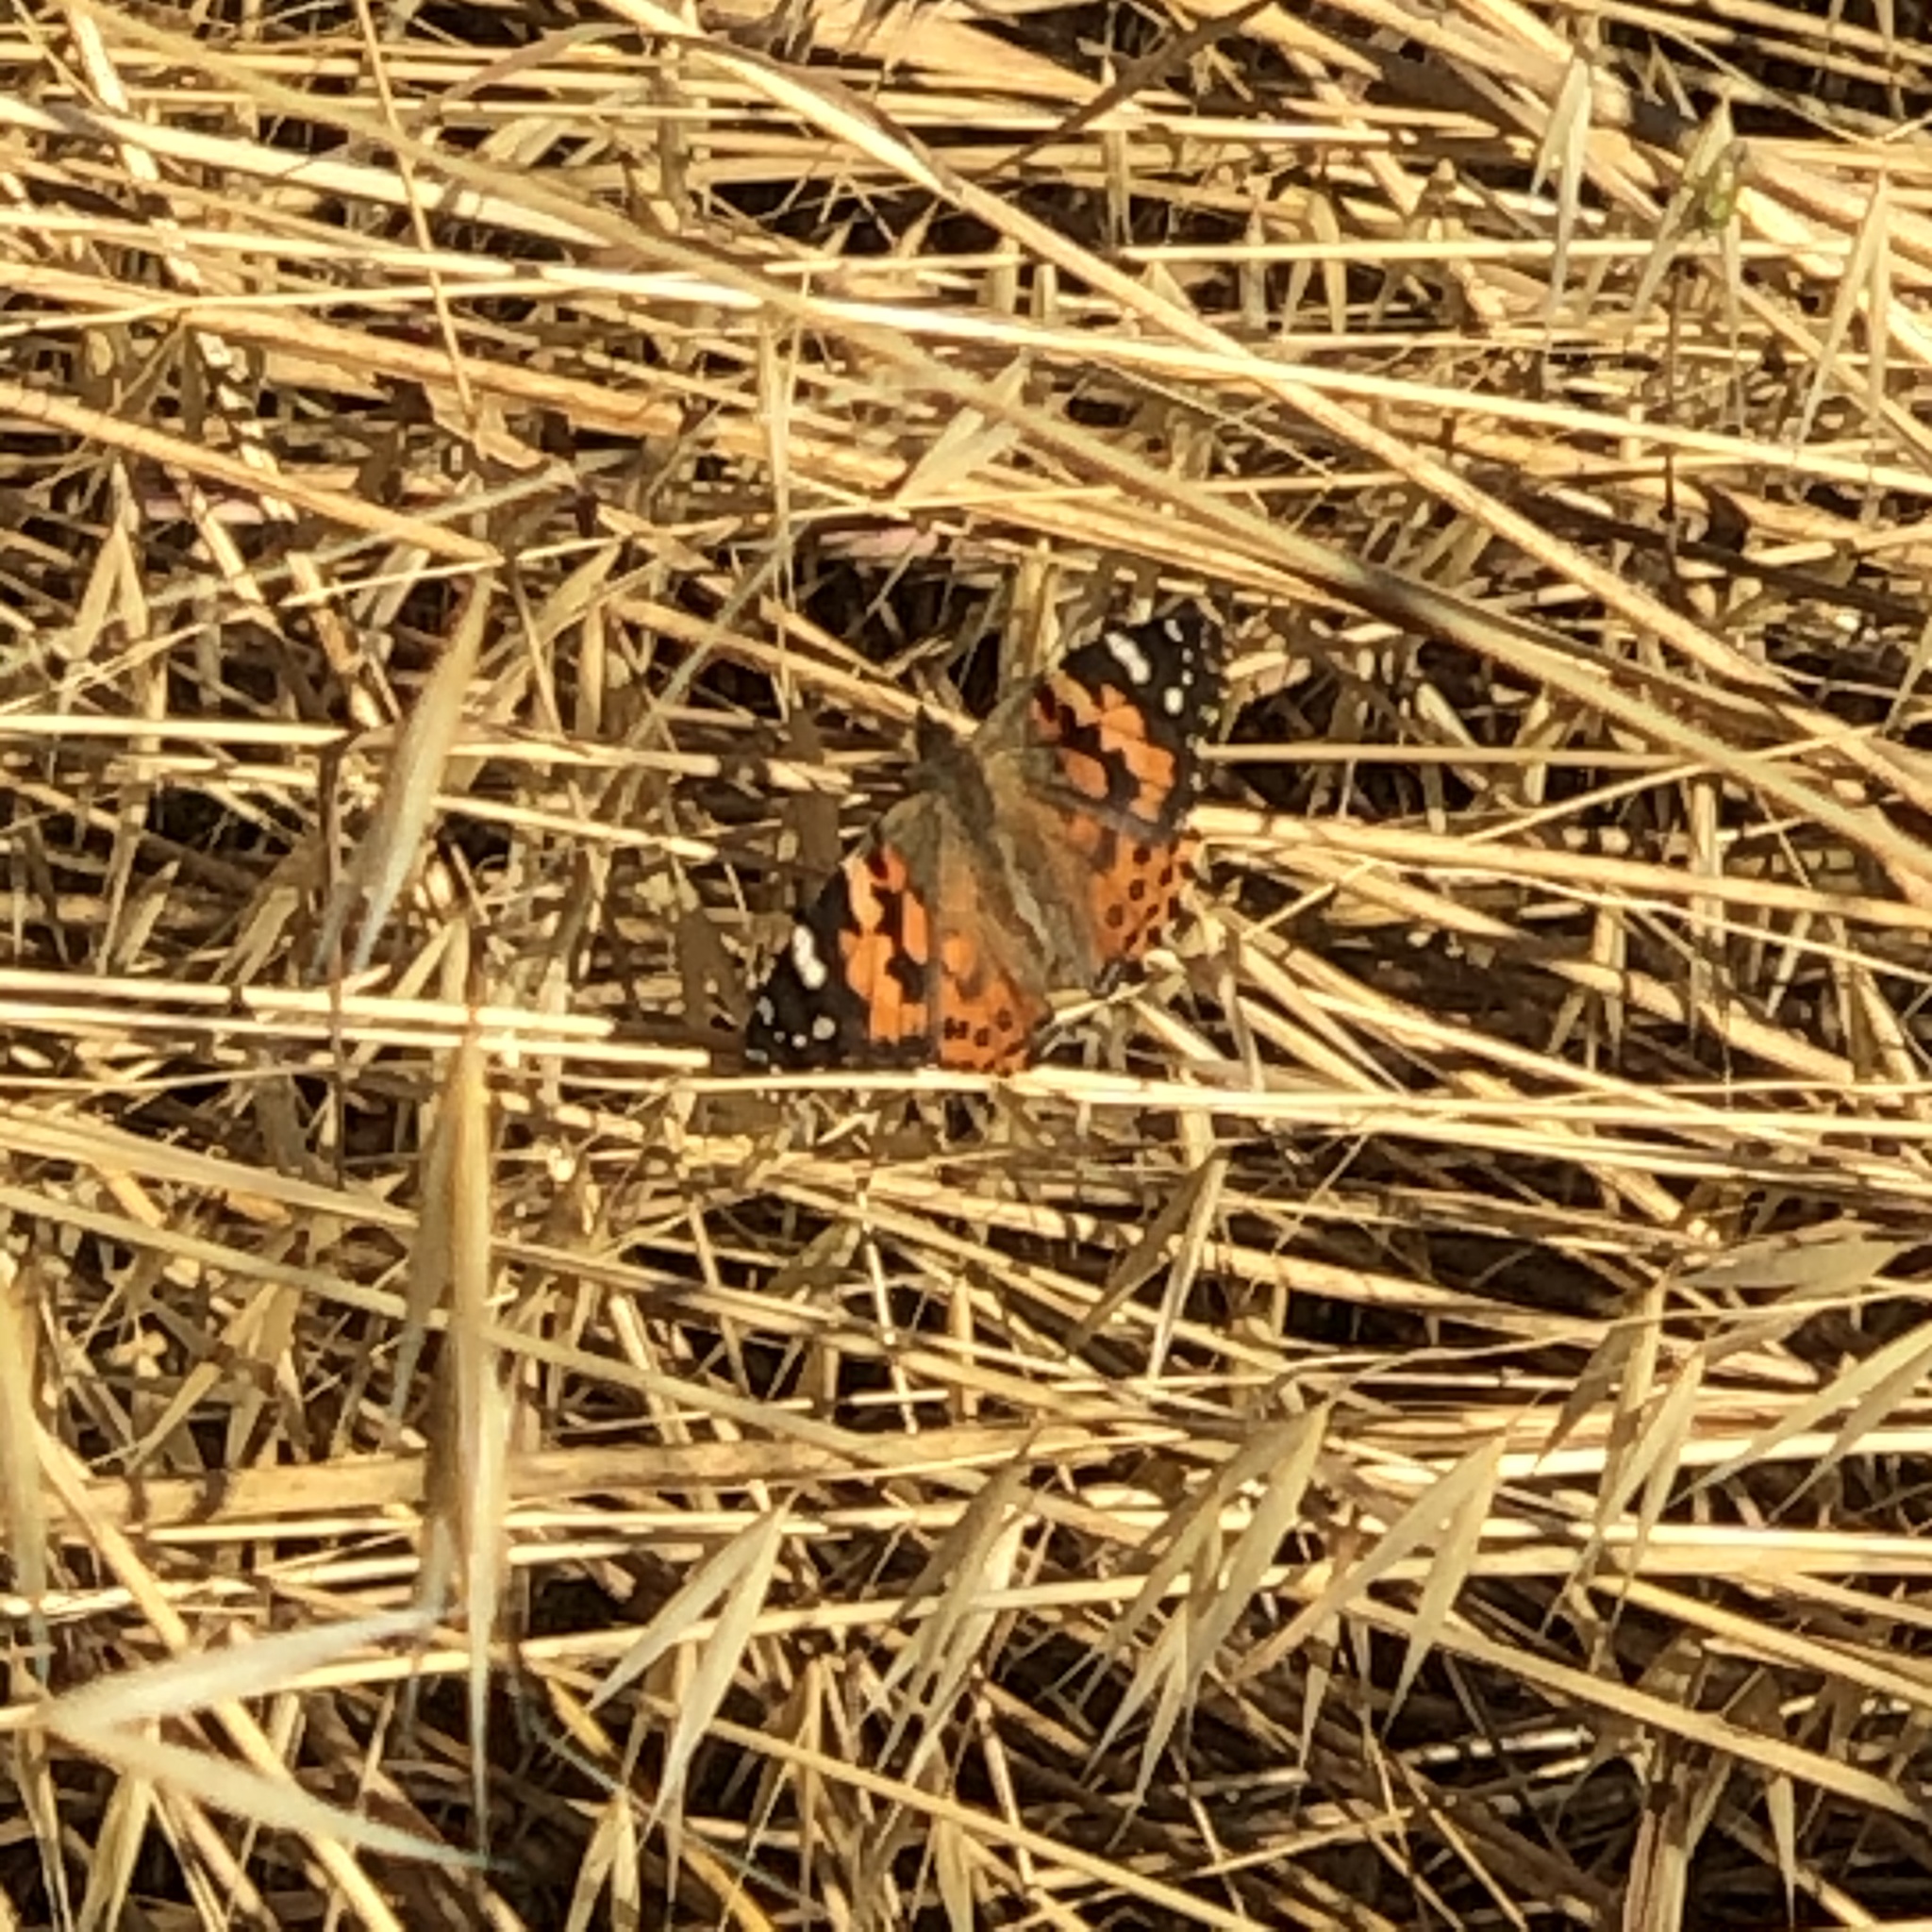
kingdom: Animalia
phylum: Arthropoda
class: Insecta
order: Lepidoptera
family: Nymphalidae
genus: Vanessa
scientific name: Vanessa cardui
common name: Painted lady
